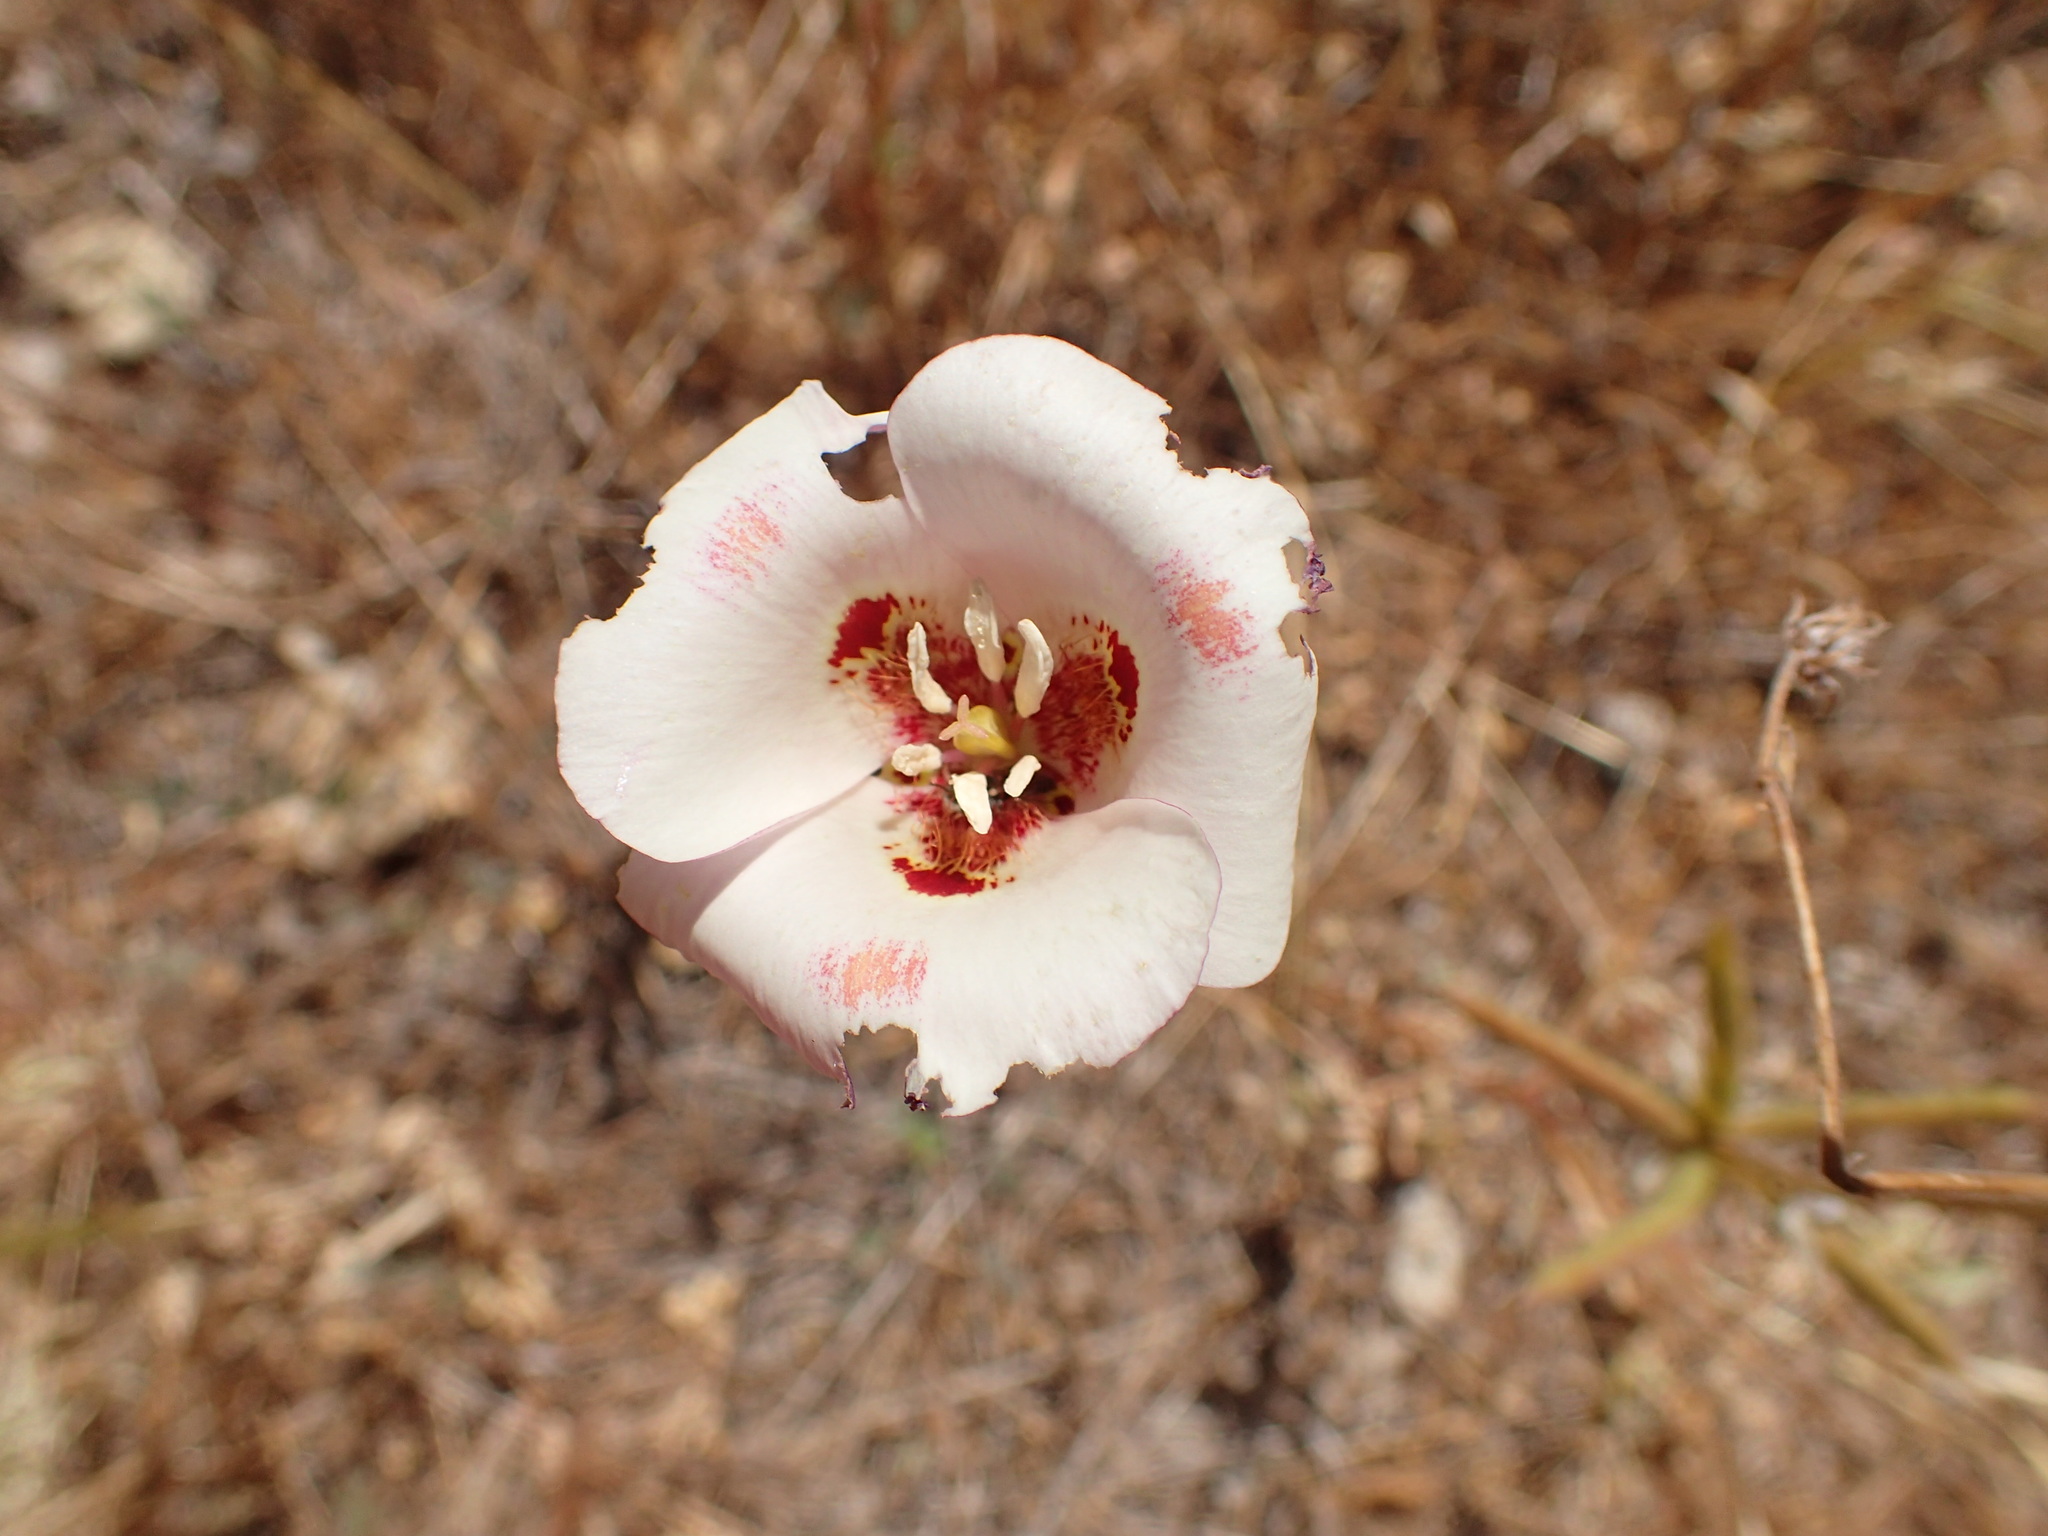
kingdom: Plantae
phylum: Tracheophyta
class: Liliopsida
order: Liliales
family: Liliaceae
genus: Calochortus
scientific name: Calochortus venustus
